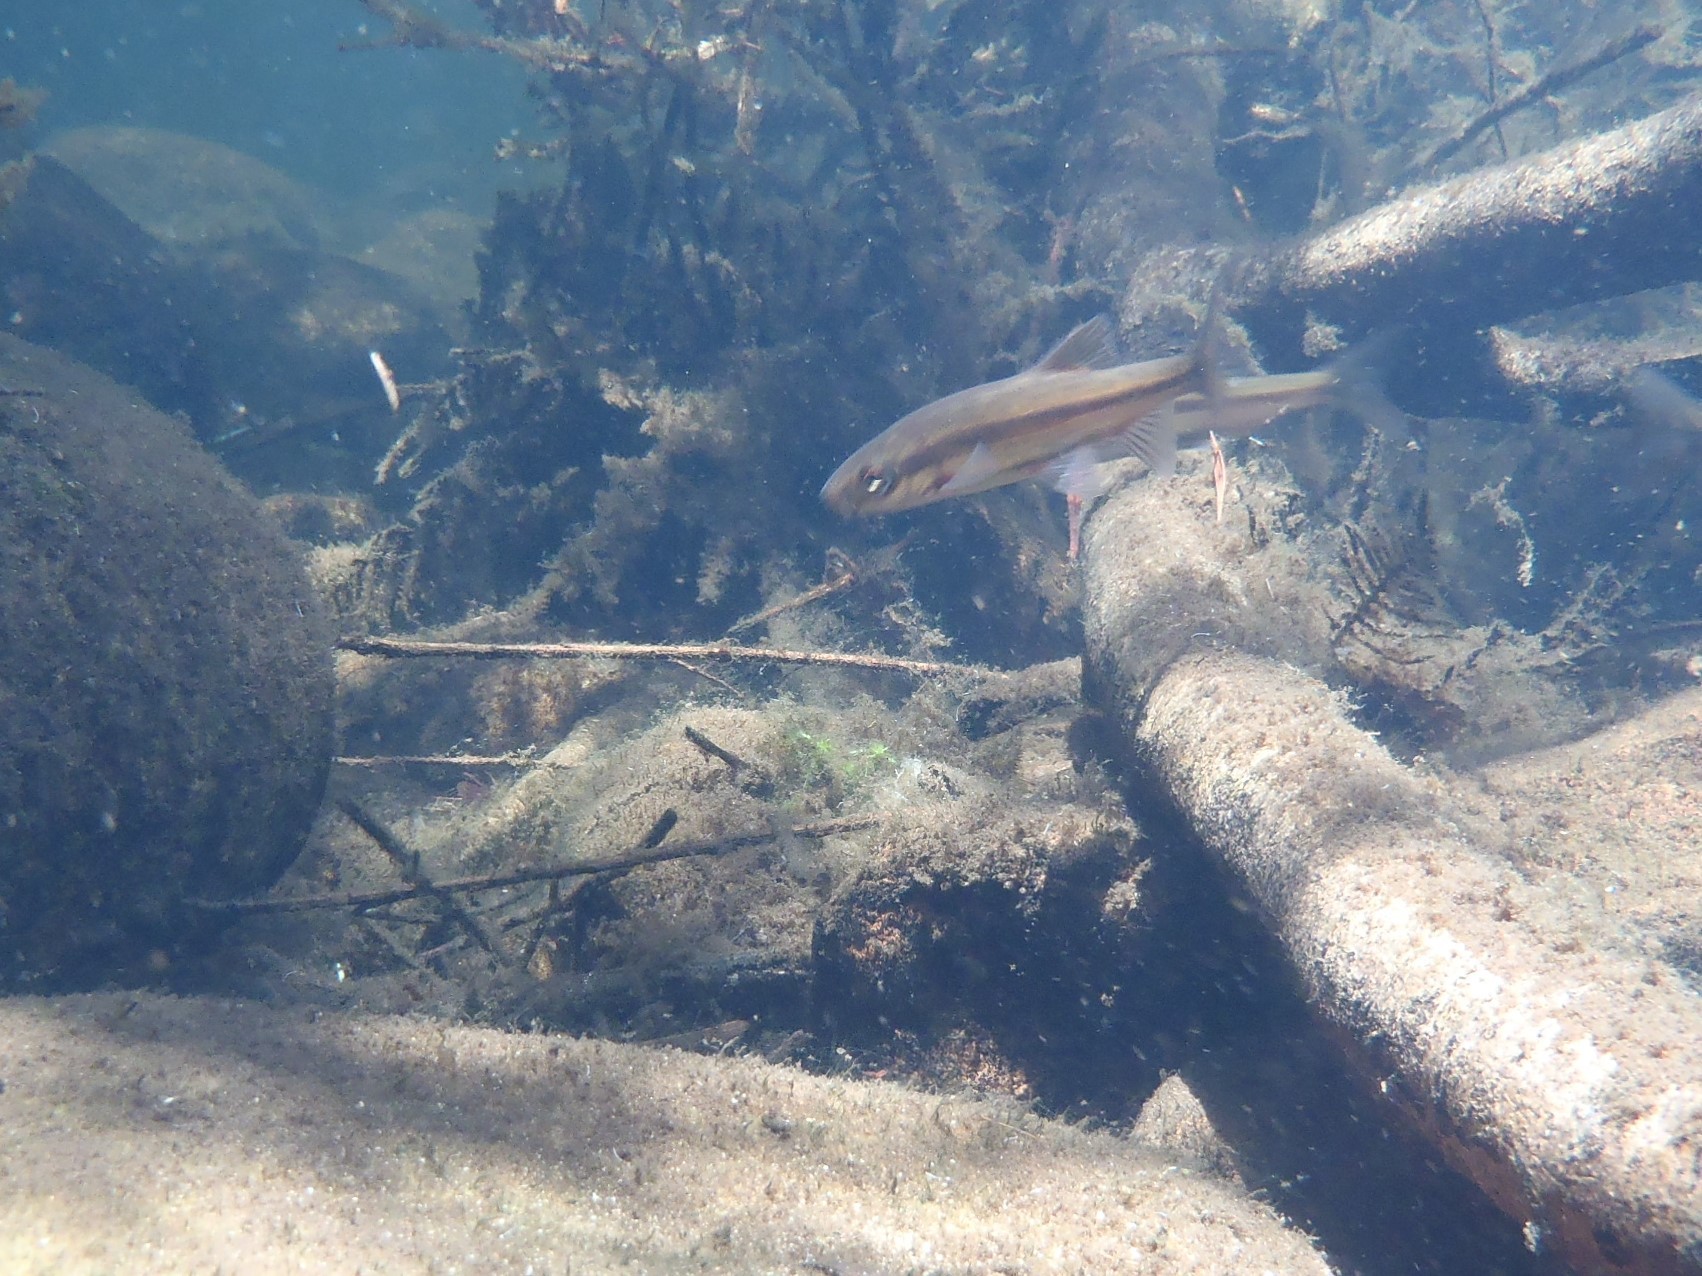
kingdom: Animalia
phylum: Chordata
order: Cypriniformes
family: Cyprinidae
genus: Pseudobarbus
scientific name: Pseudobarbus calidus
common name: Clanwilliam redfin
